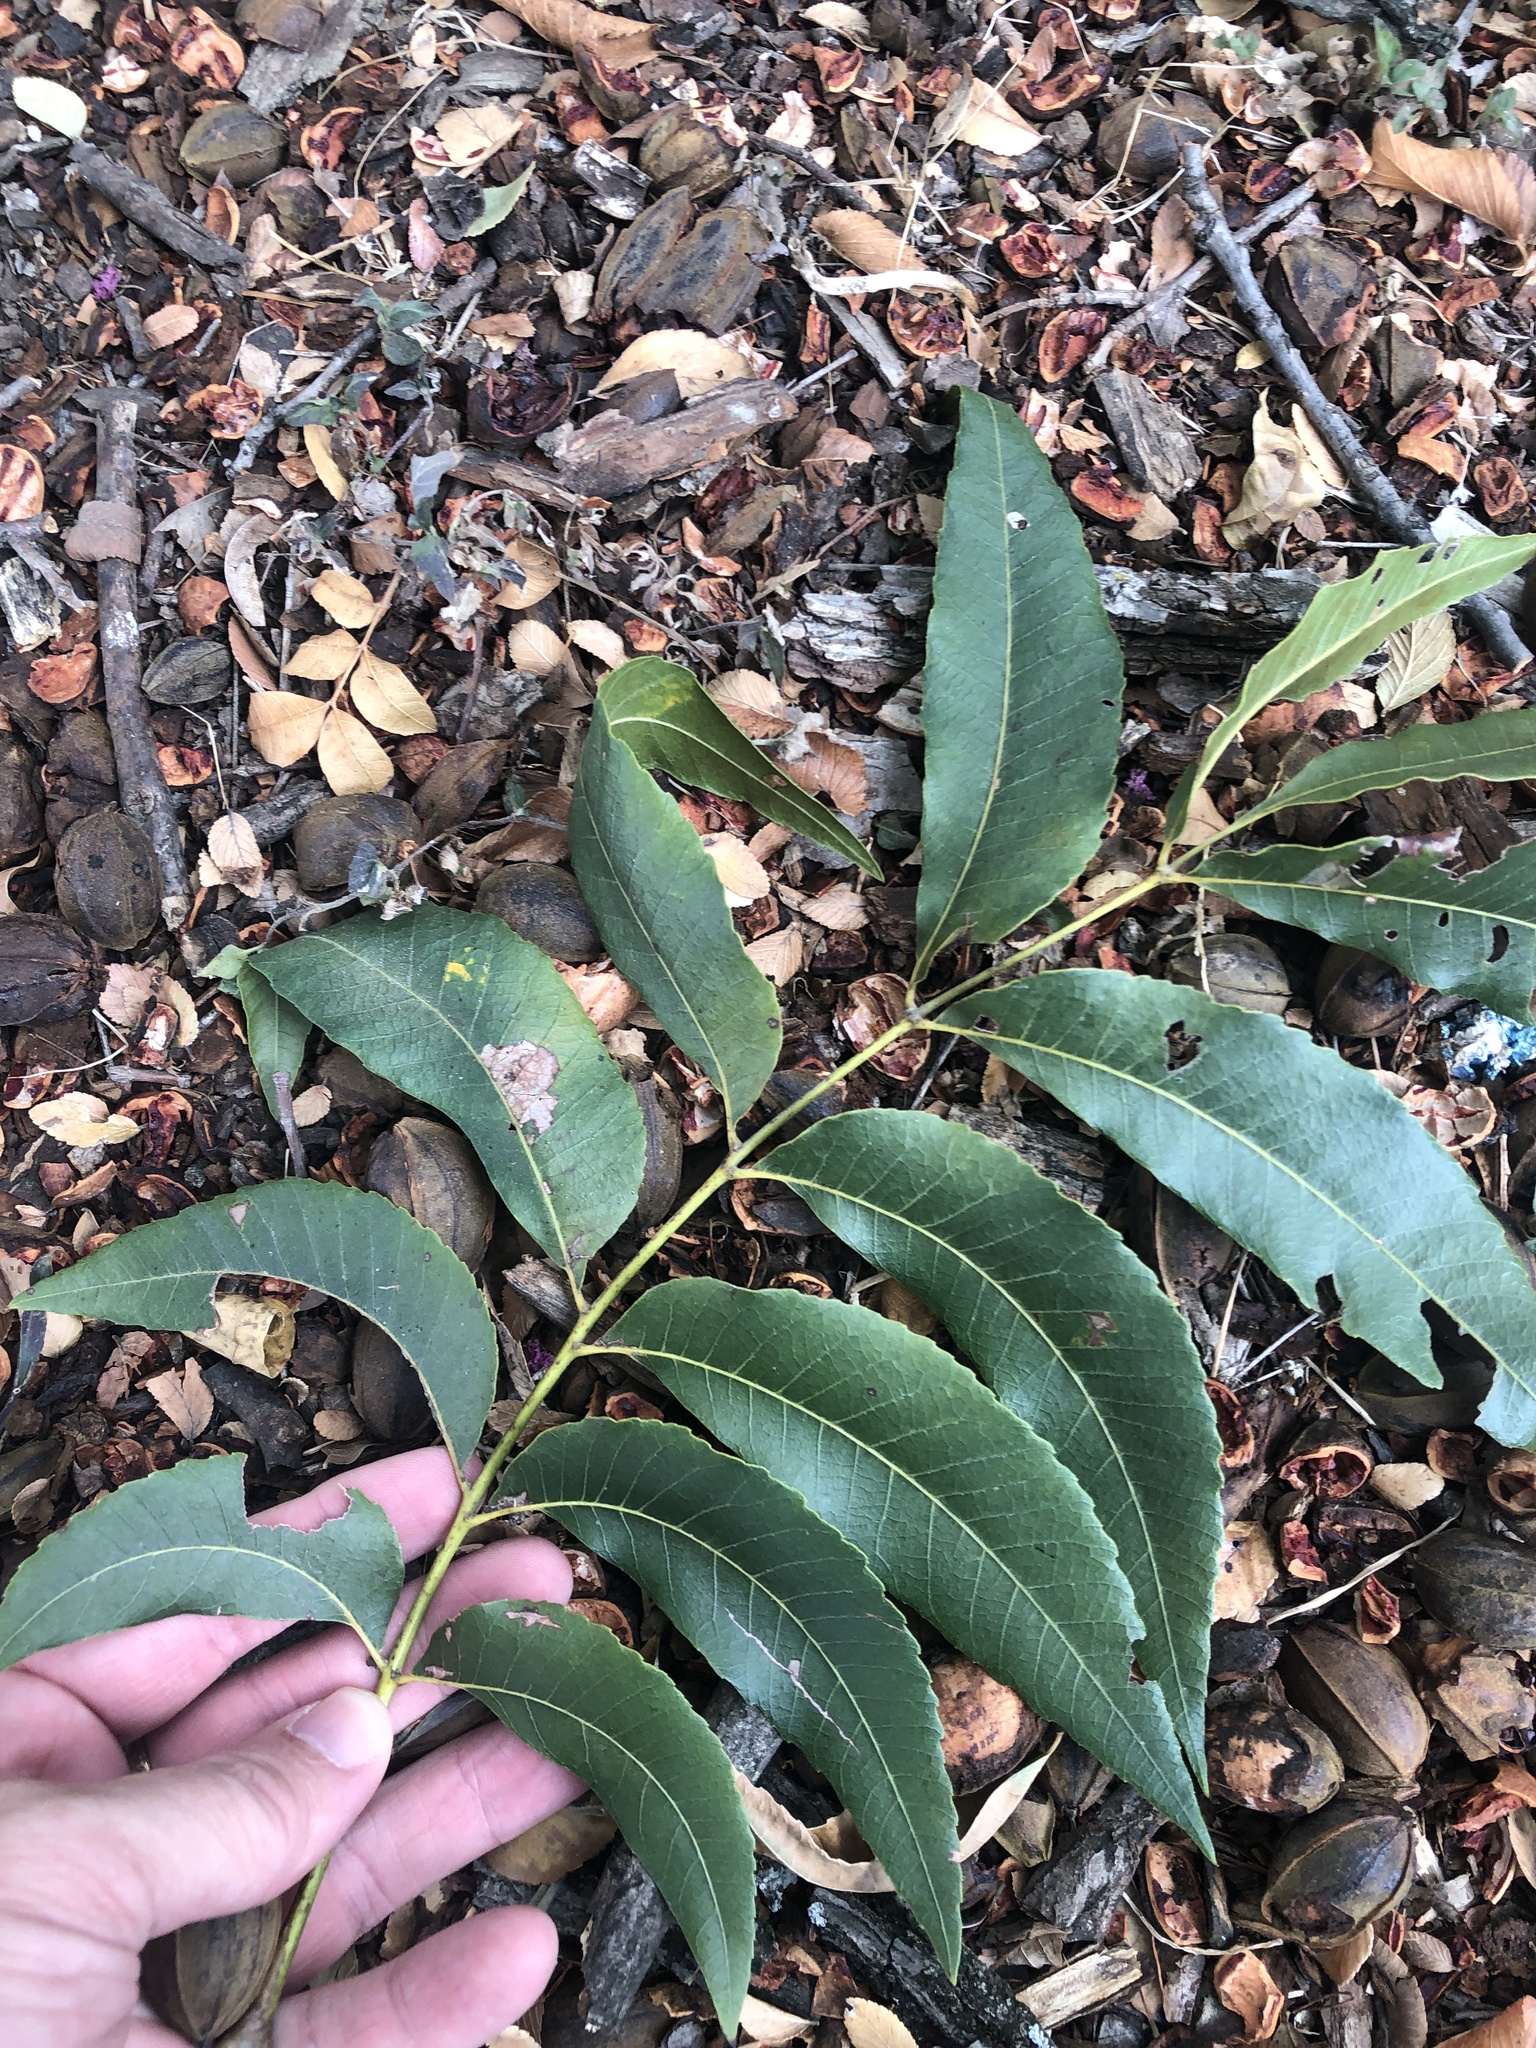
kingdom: Plantae
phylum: Tracheophyta
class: Magnoliopsida
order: Fagales
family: Juglandaceae
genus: Carya
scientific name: Carya illinoinensis
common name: Pecan
